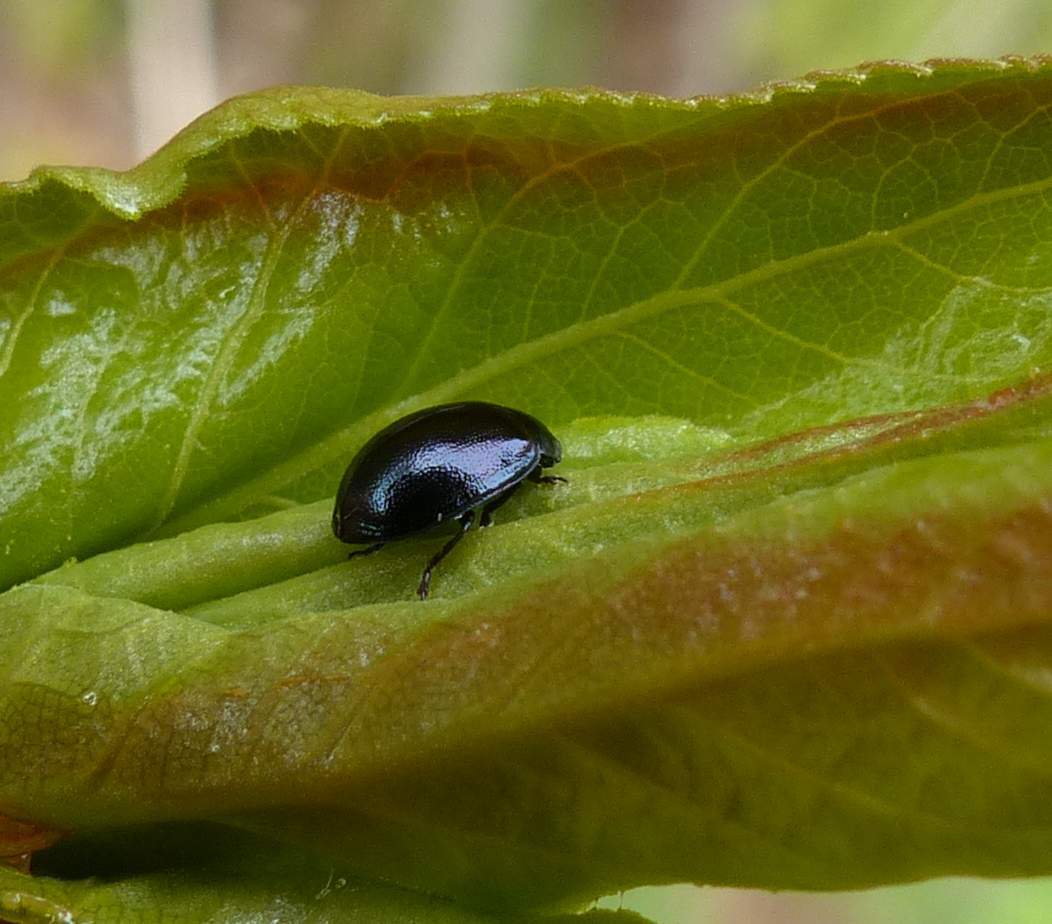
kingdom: Animalia
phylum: Arthropoda
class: Insecta
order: Coleoptera
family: Chrysomelidae
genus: Plagiodera
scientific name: Plagiodera versicolora
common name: Imported willow leaf beetle
